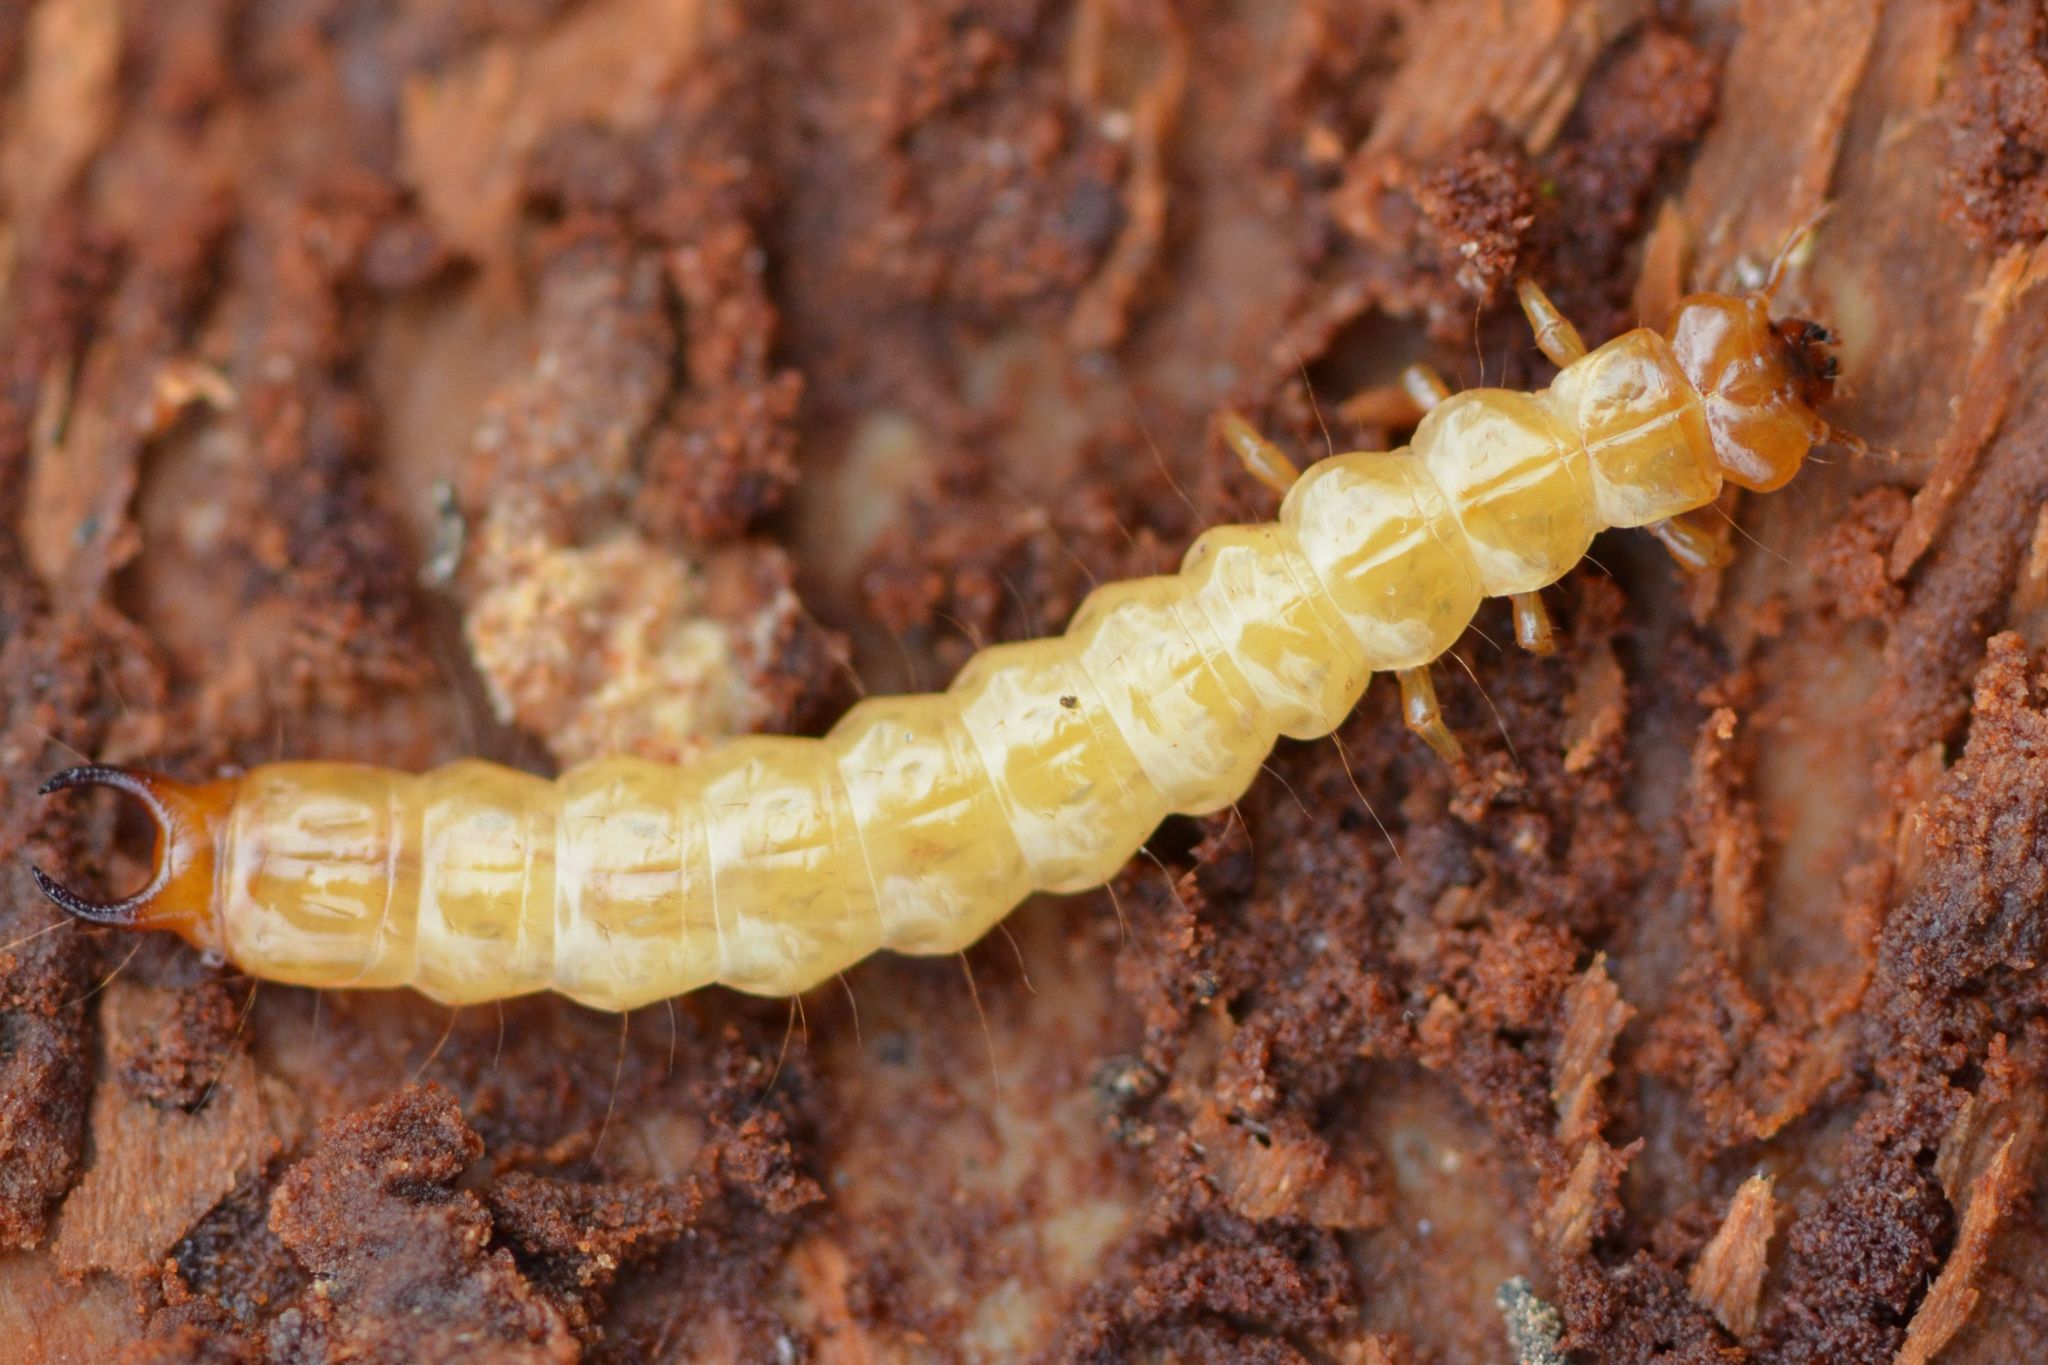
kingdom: Animalia
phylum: Arthropoda
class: Insecta
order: Coleoptera
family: Pyrochroidae
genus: Schizotus
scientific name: Schizotus pectinicornis
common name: Scarce cardinal beetle
